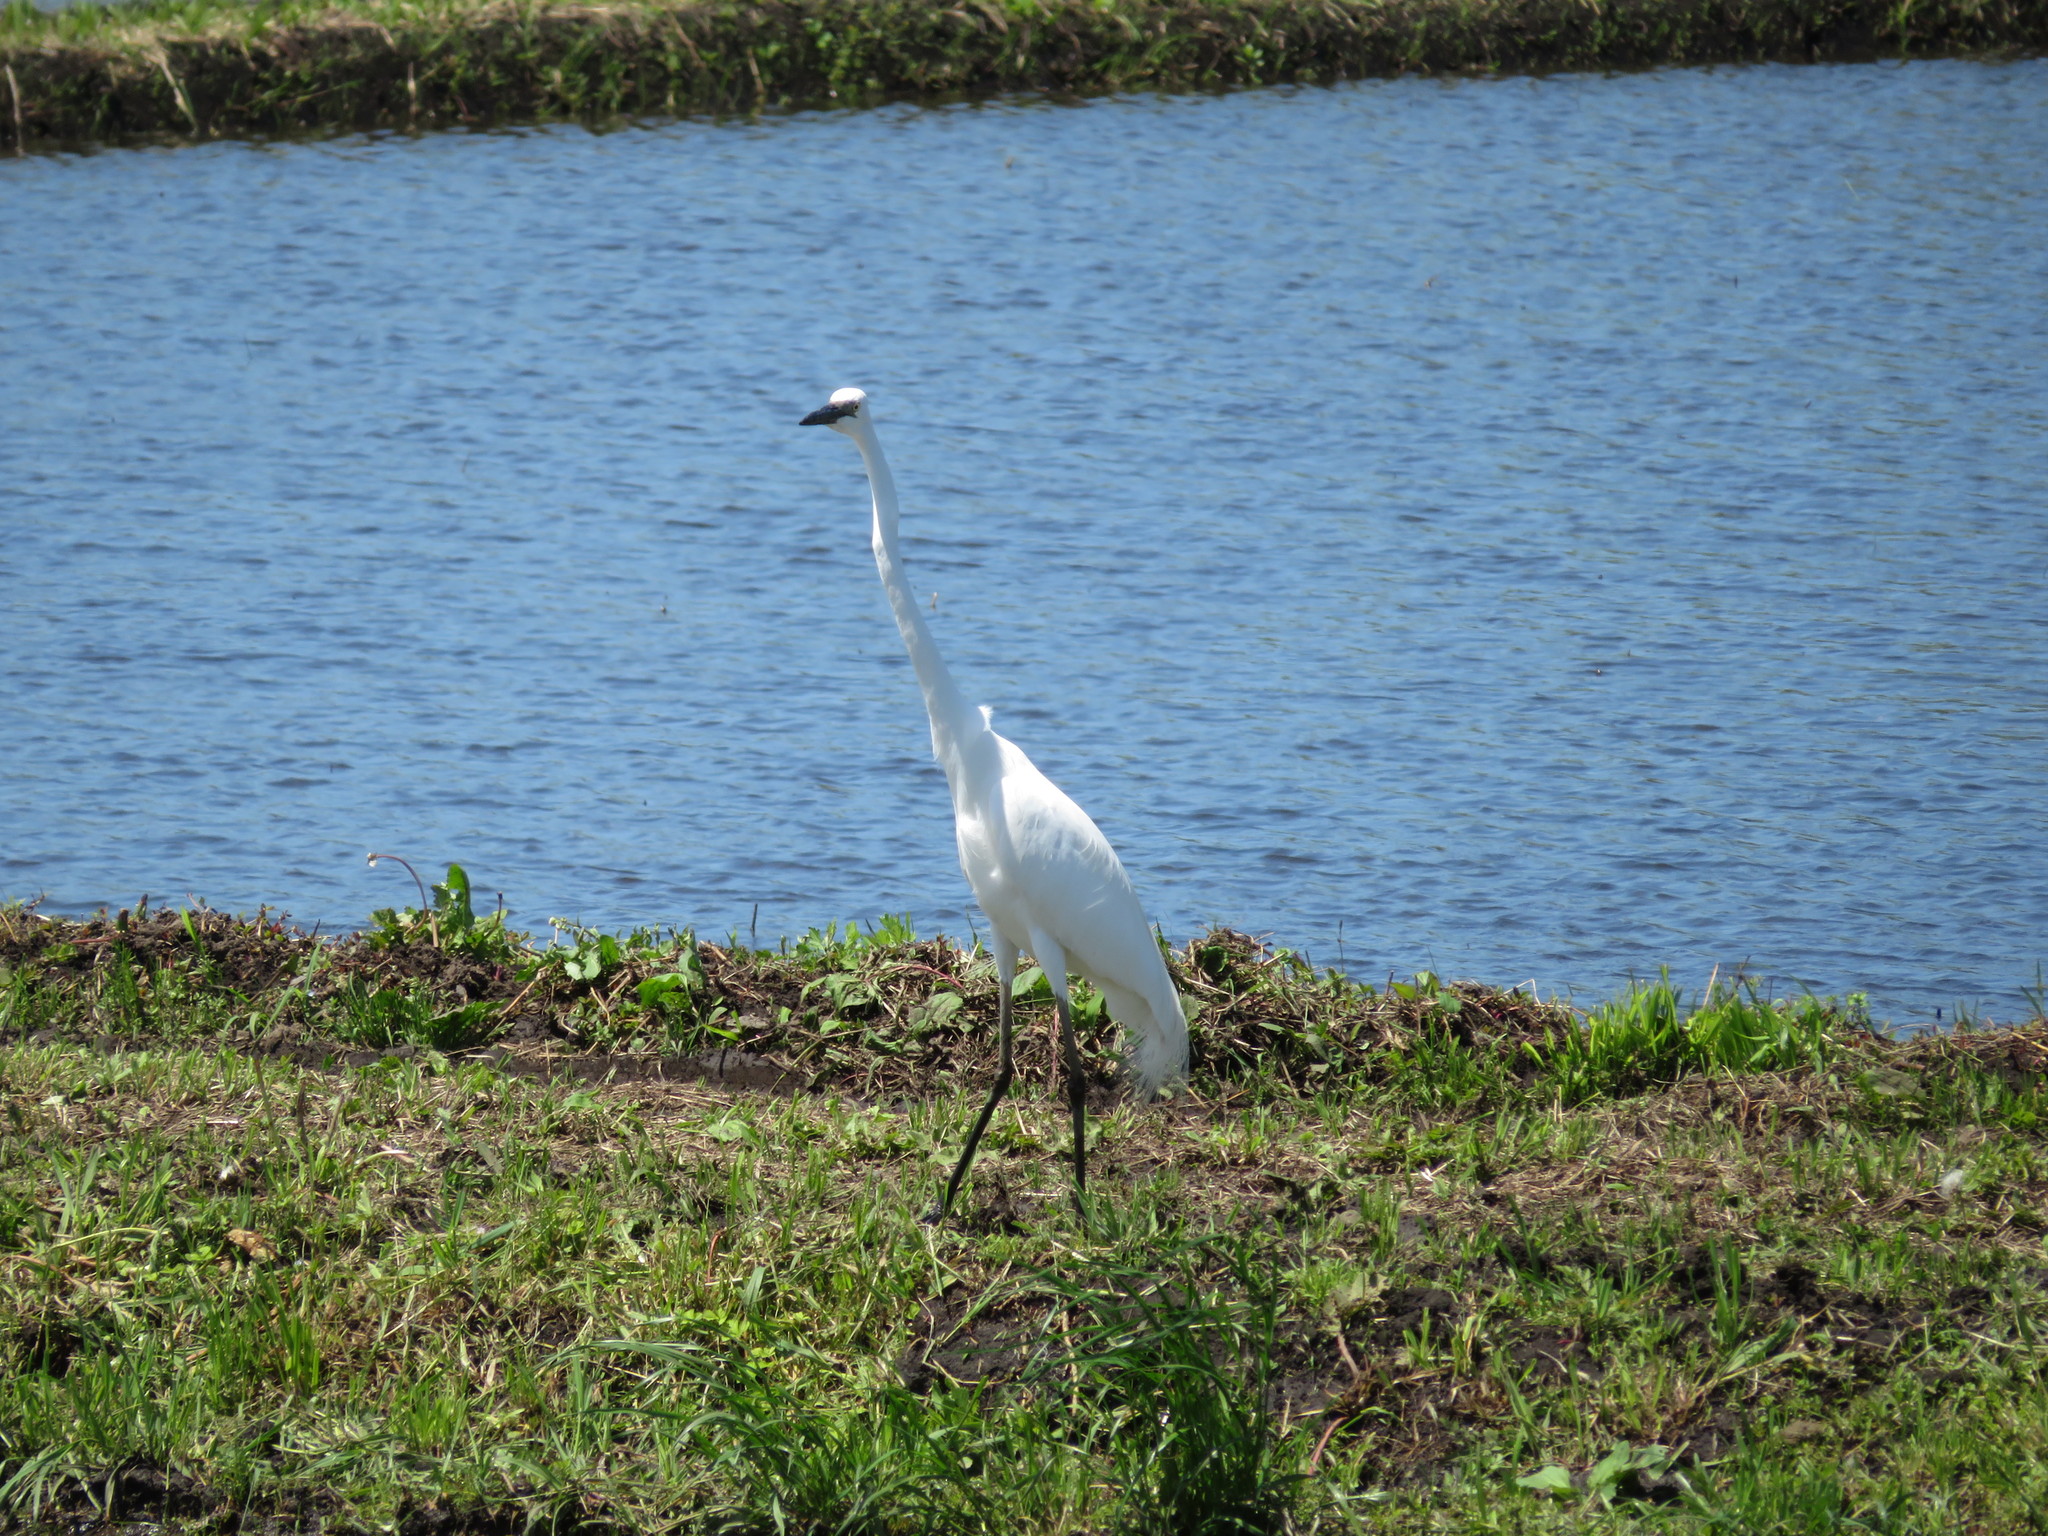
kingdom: Animalia
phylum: Chordata
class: Aves
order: Pelecaniformes
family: Ardeidae
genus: Ardea
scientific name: Ardea modesta
